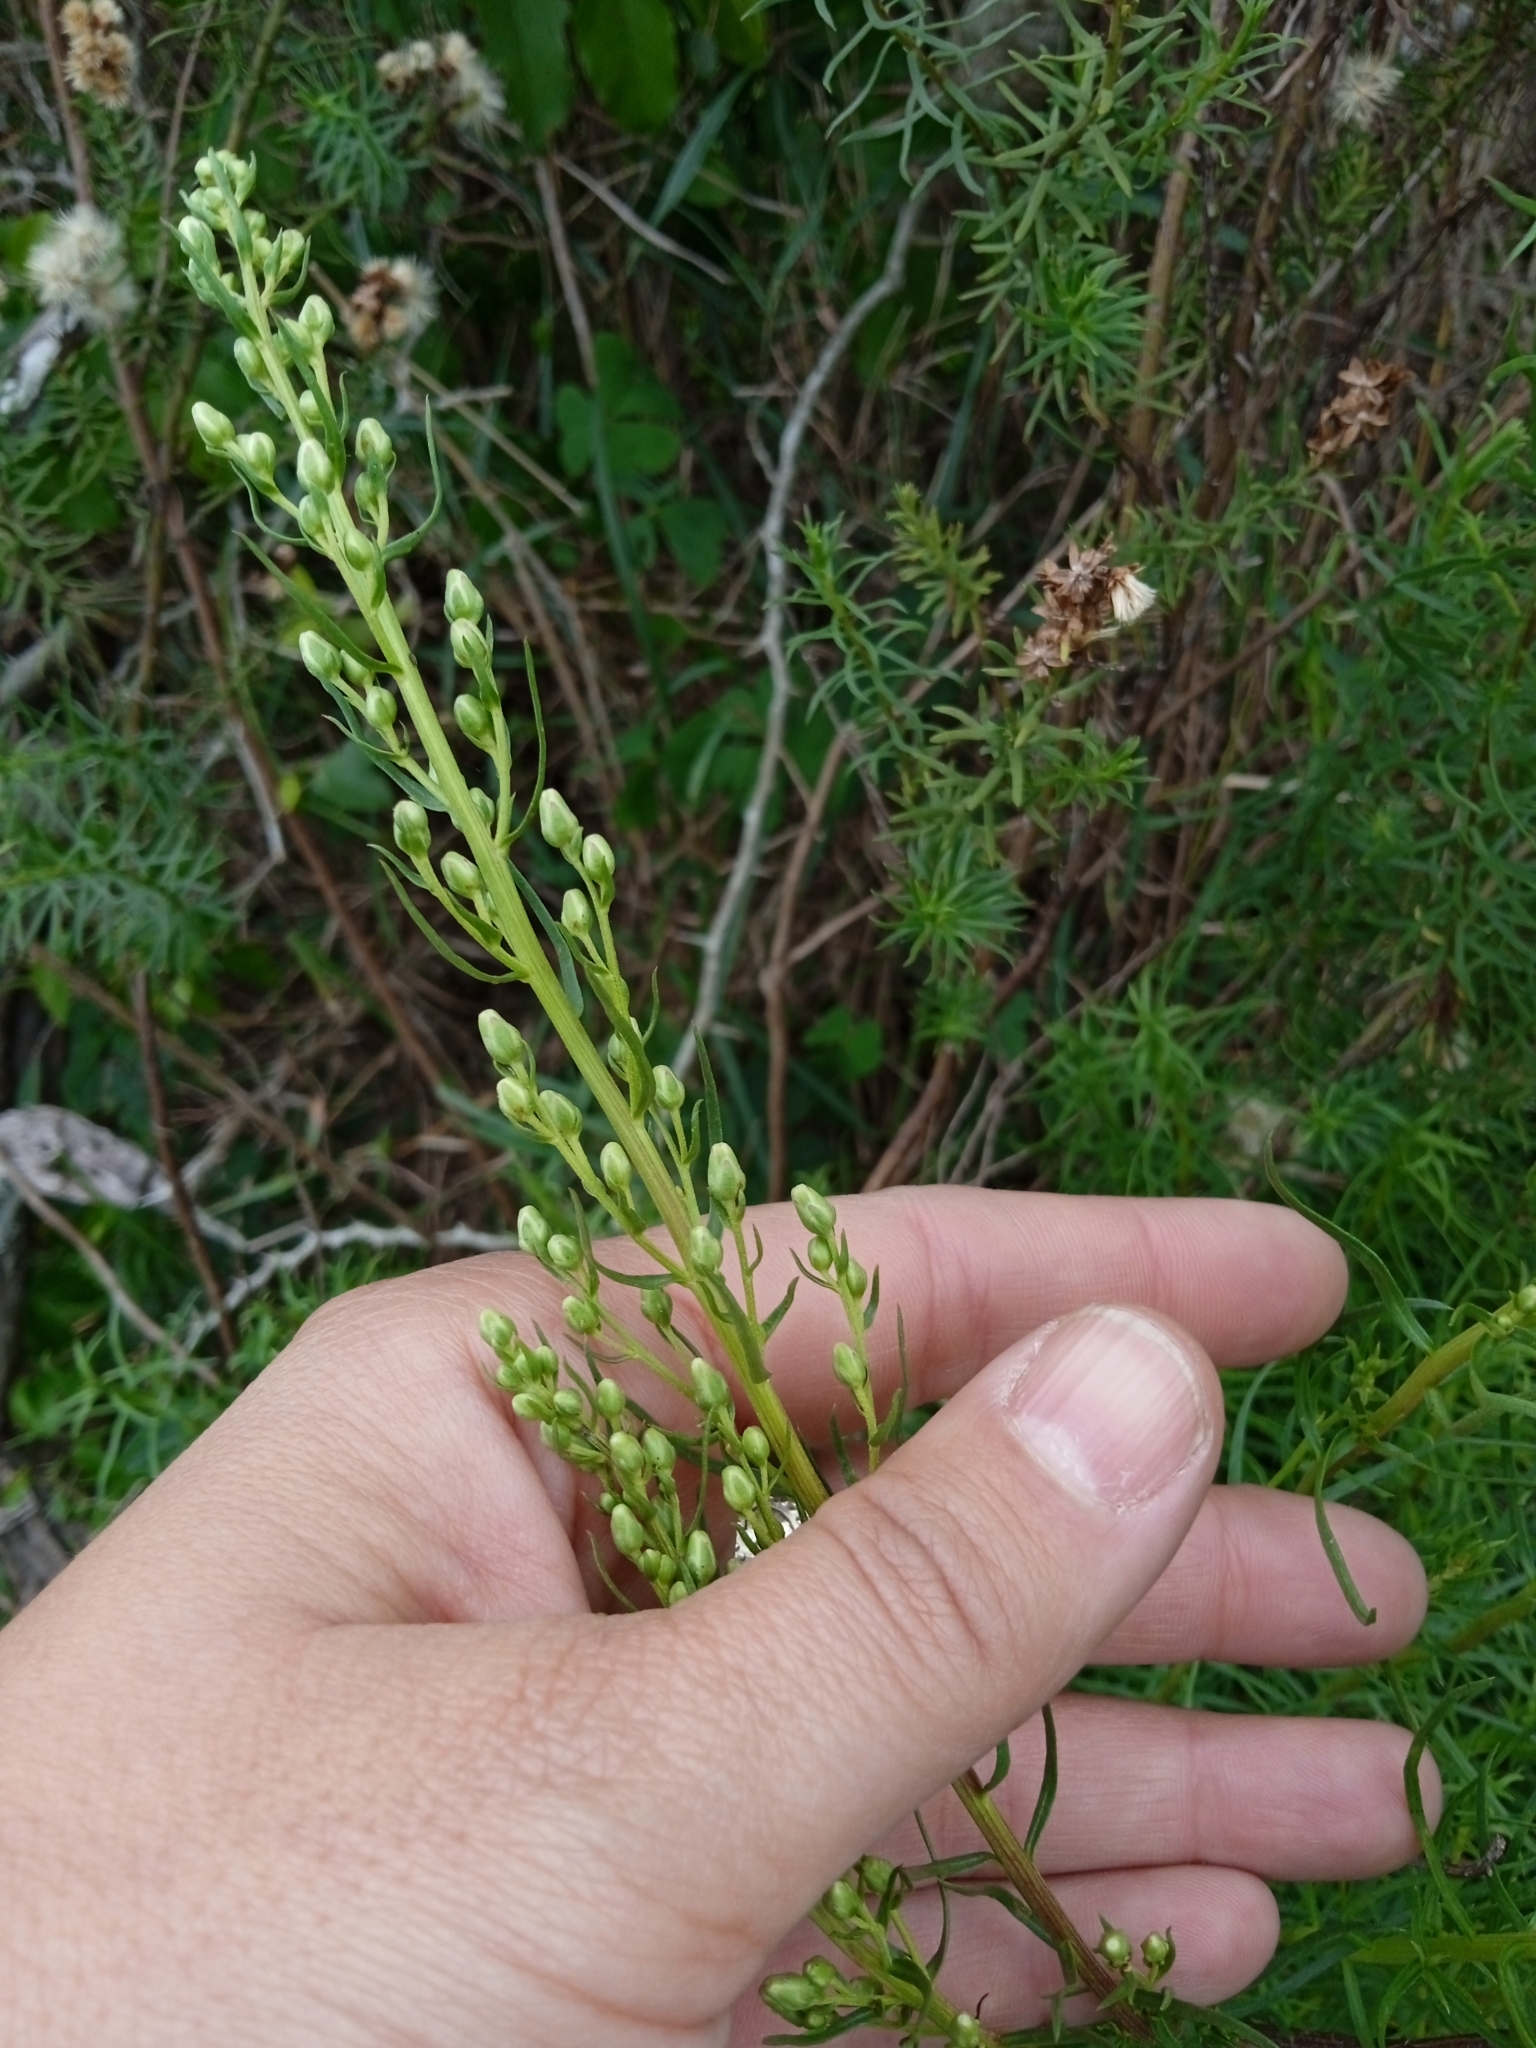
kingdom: Plantae
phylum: Tracheophyta
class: Magnoliopsida
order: Asterales
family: Asteraceae
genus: Baccharis
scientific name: Baccharis coridifolia
